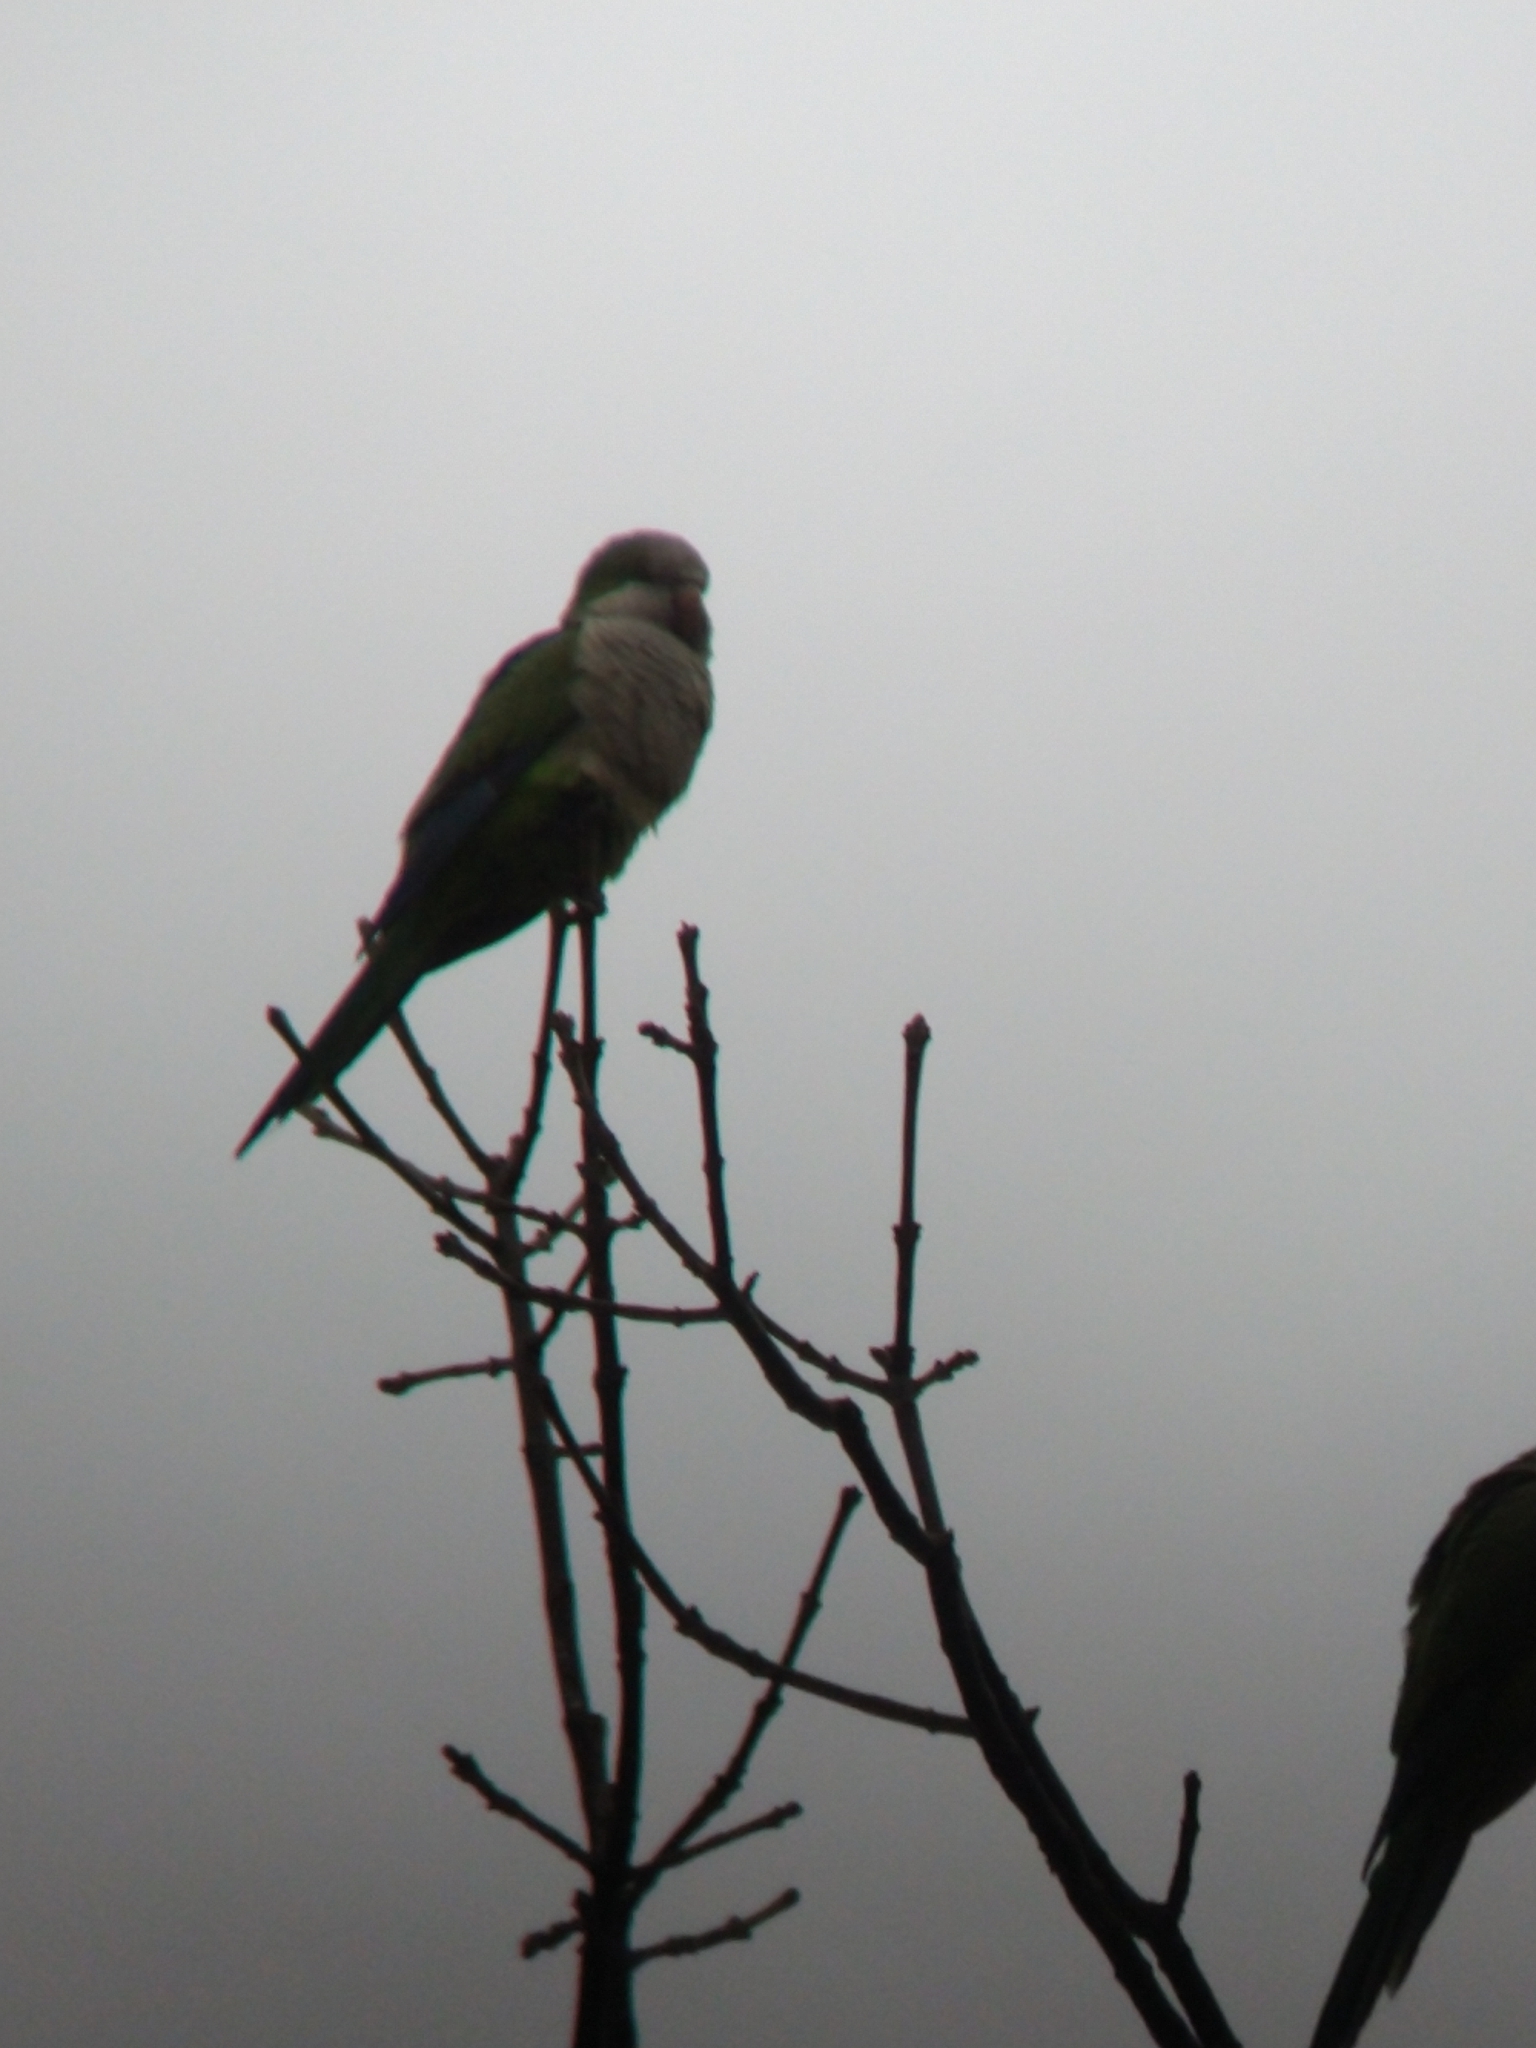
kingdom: Animalia
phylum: Chordata
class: Aves
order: Psittaciformes
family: Psittacidae
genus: Myiopsitta
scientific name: Myiopsitta monachus
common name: Monk parakeet
